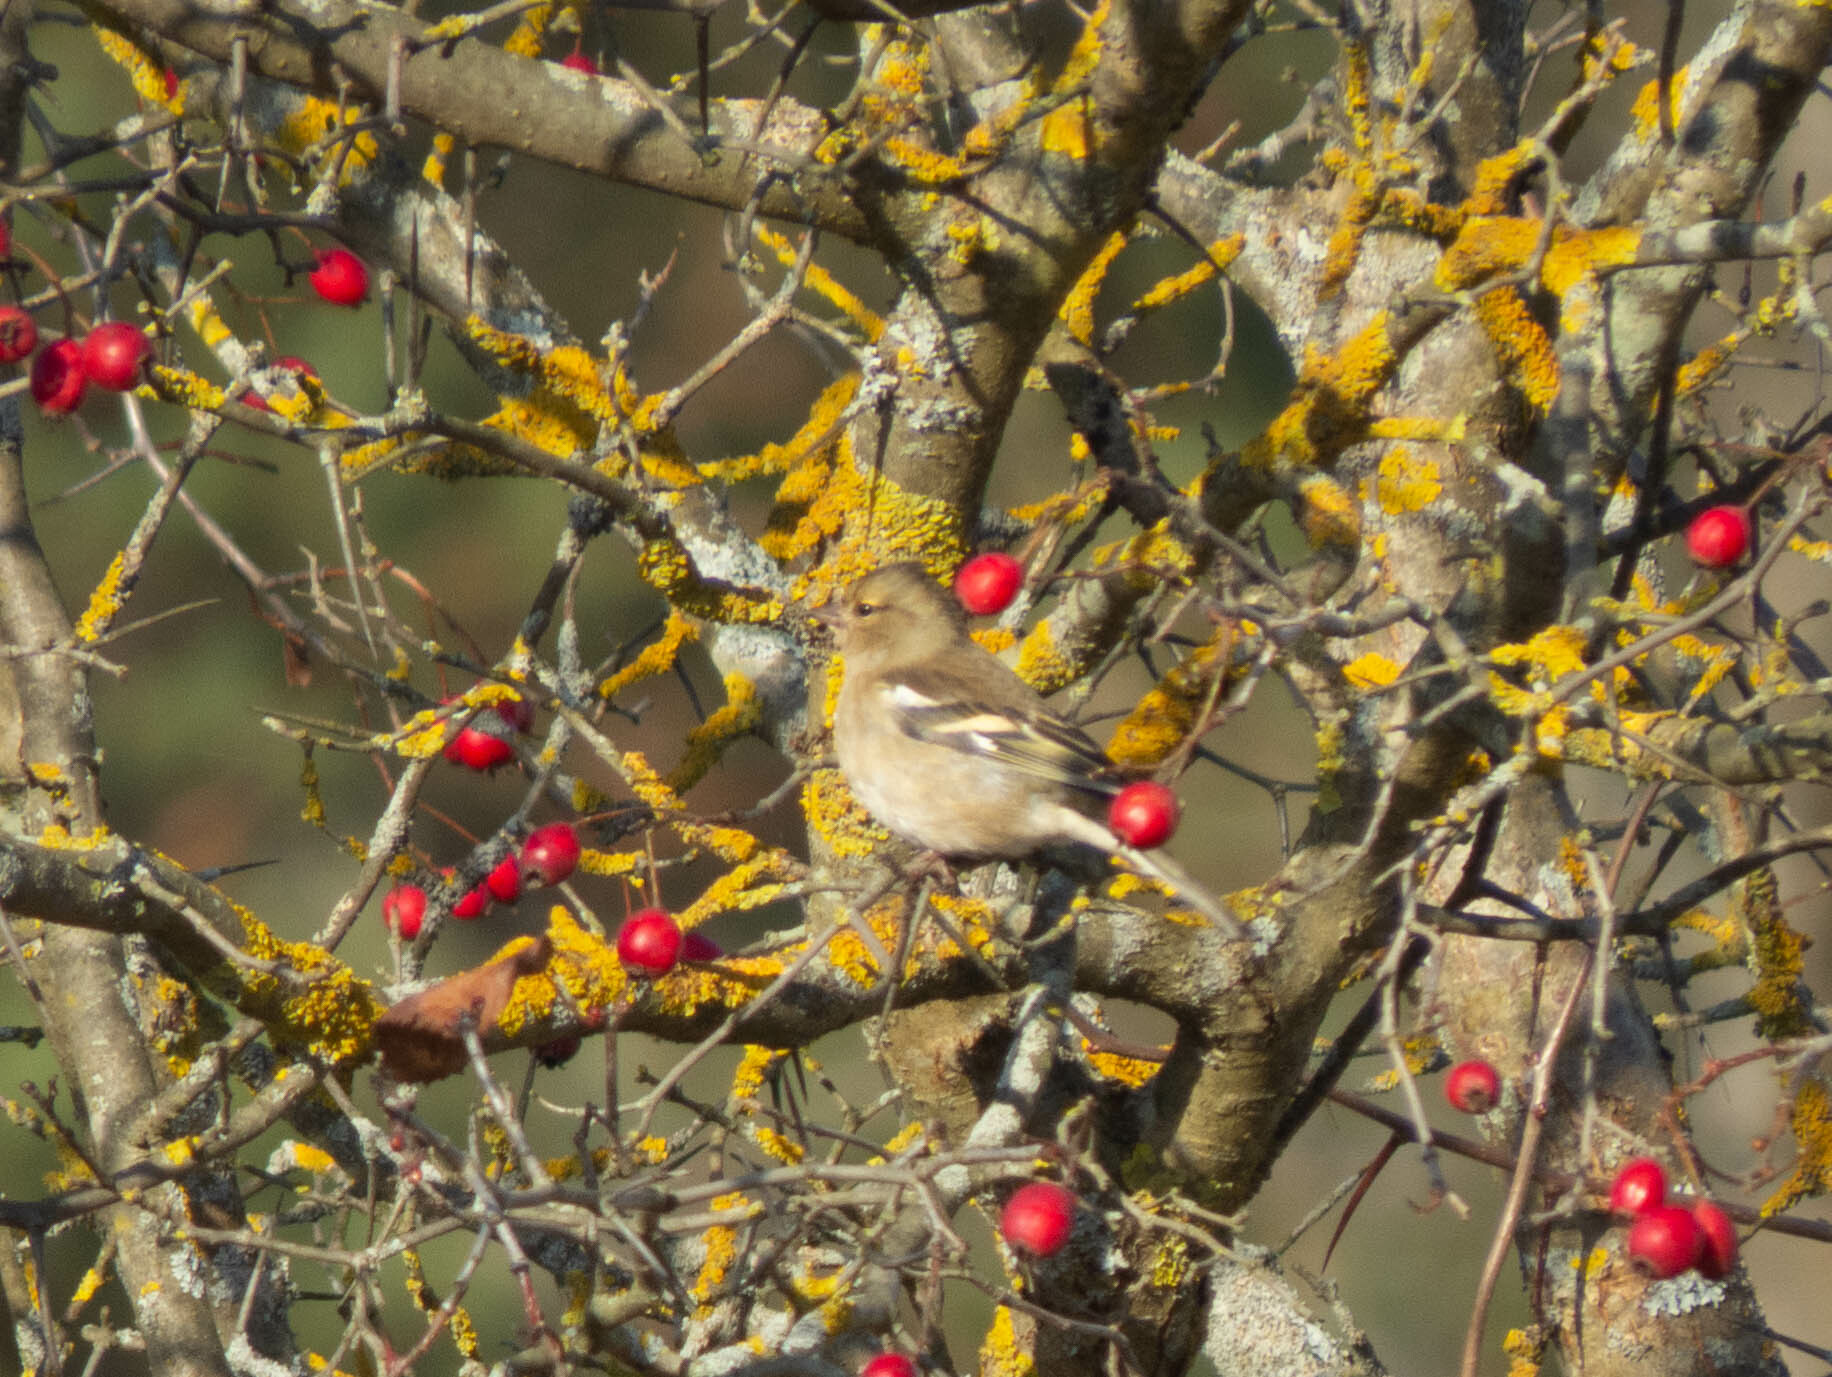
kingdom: Animalia
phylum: Chordata
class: Aves
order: Passeriformes
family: Fringillidae
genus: Fringilla
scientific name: Fringilla coelebs
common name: Common chaffinch
